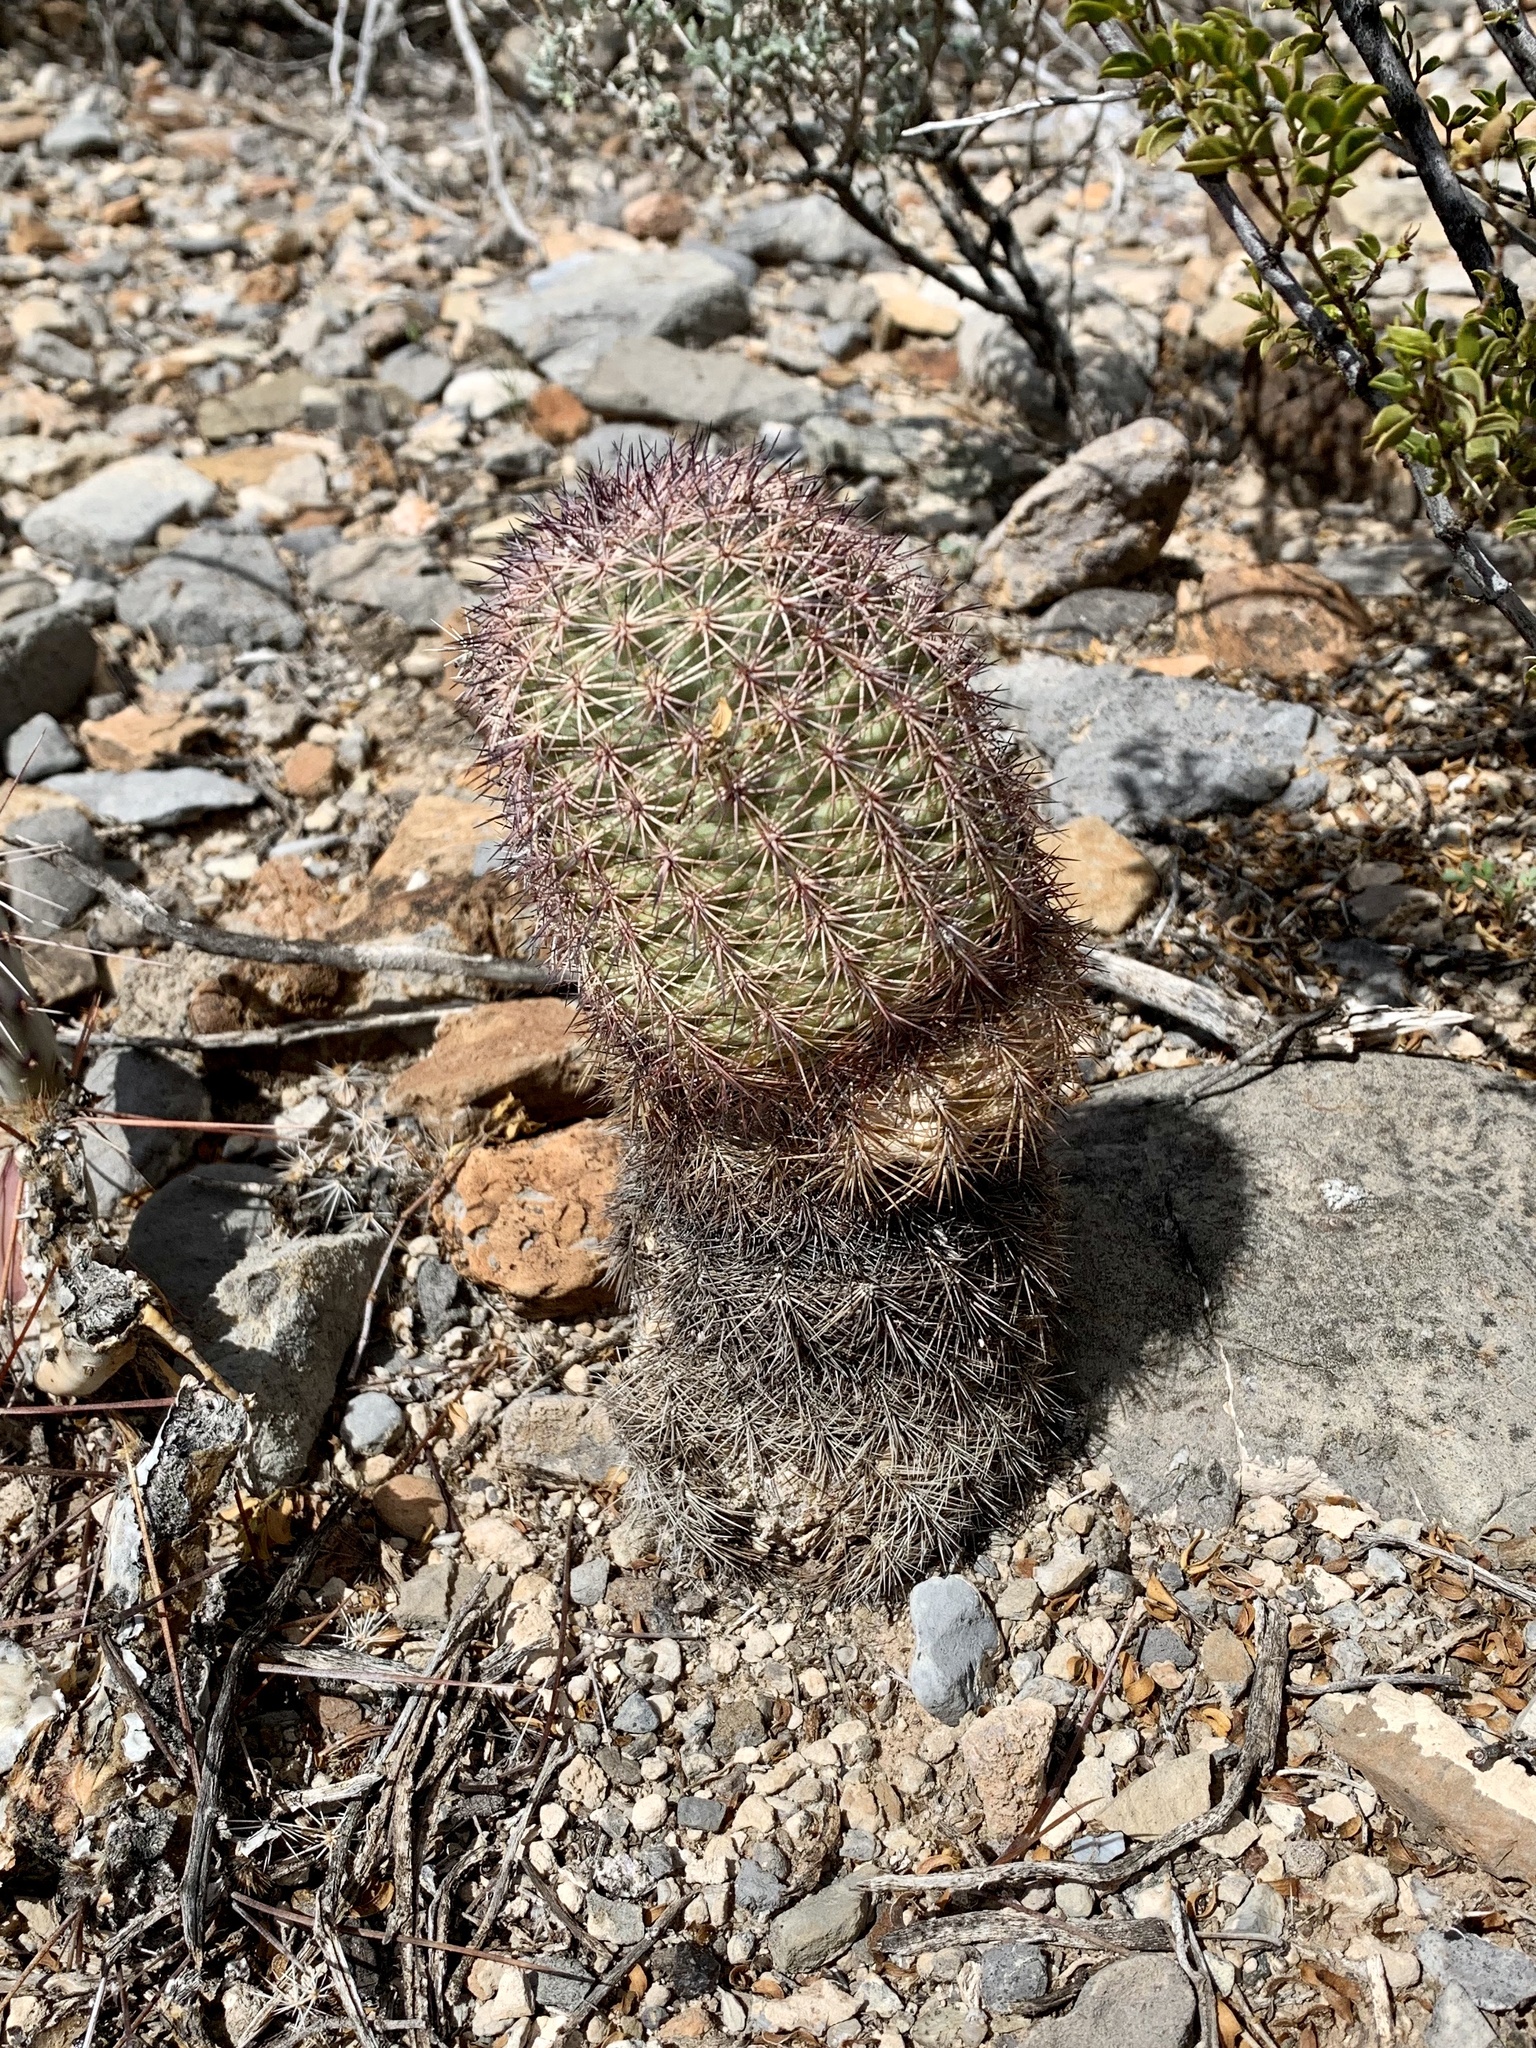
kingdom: Plantae
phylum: Tracheophyta
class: Magnoliopsida
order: Caryophyllales
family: Cactaceae
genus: Echinocereus
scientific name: Echinocereus dasyacanthus
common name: Spiny hedgehog cactus
